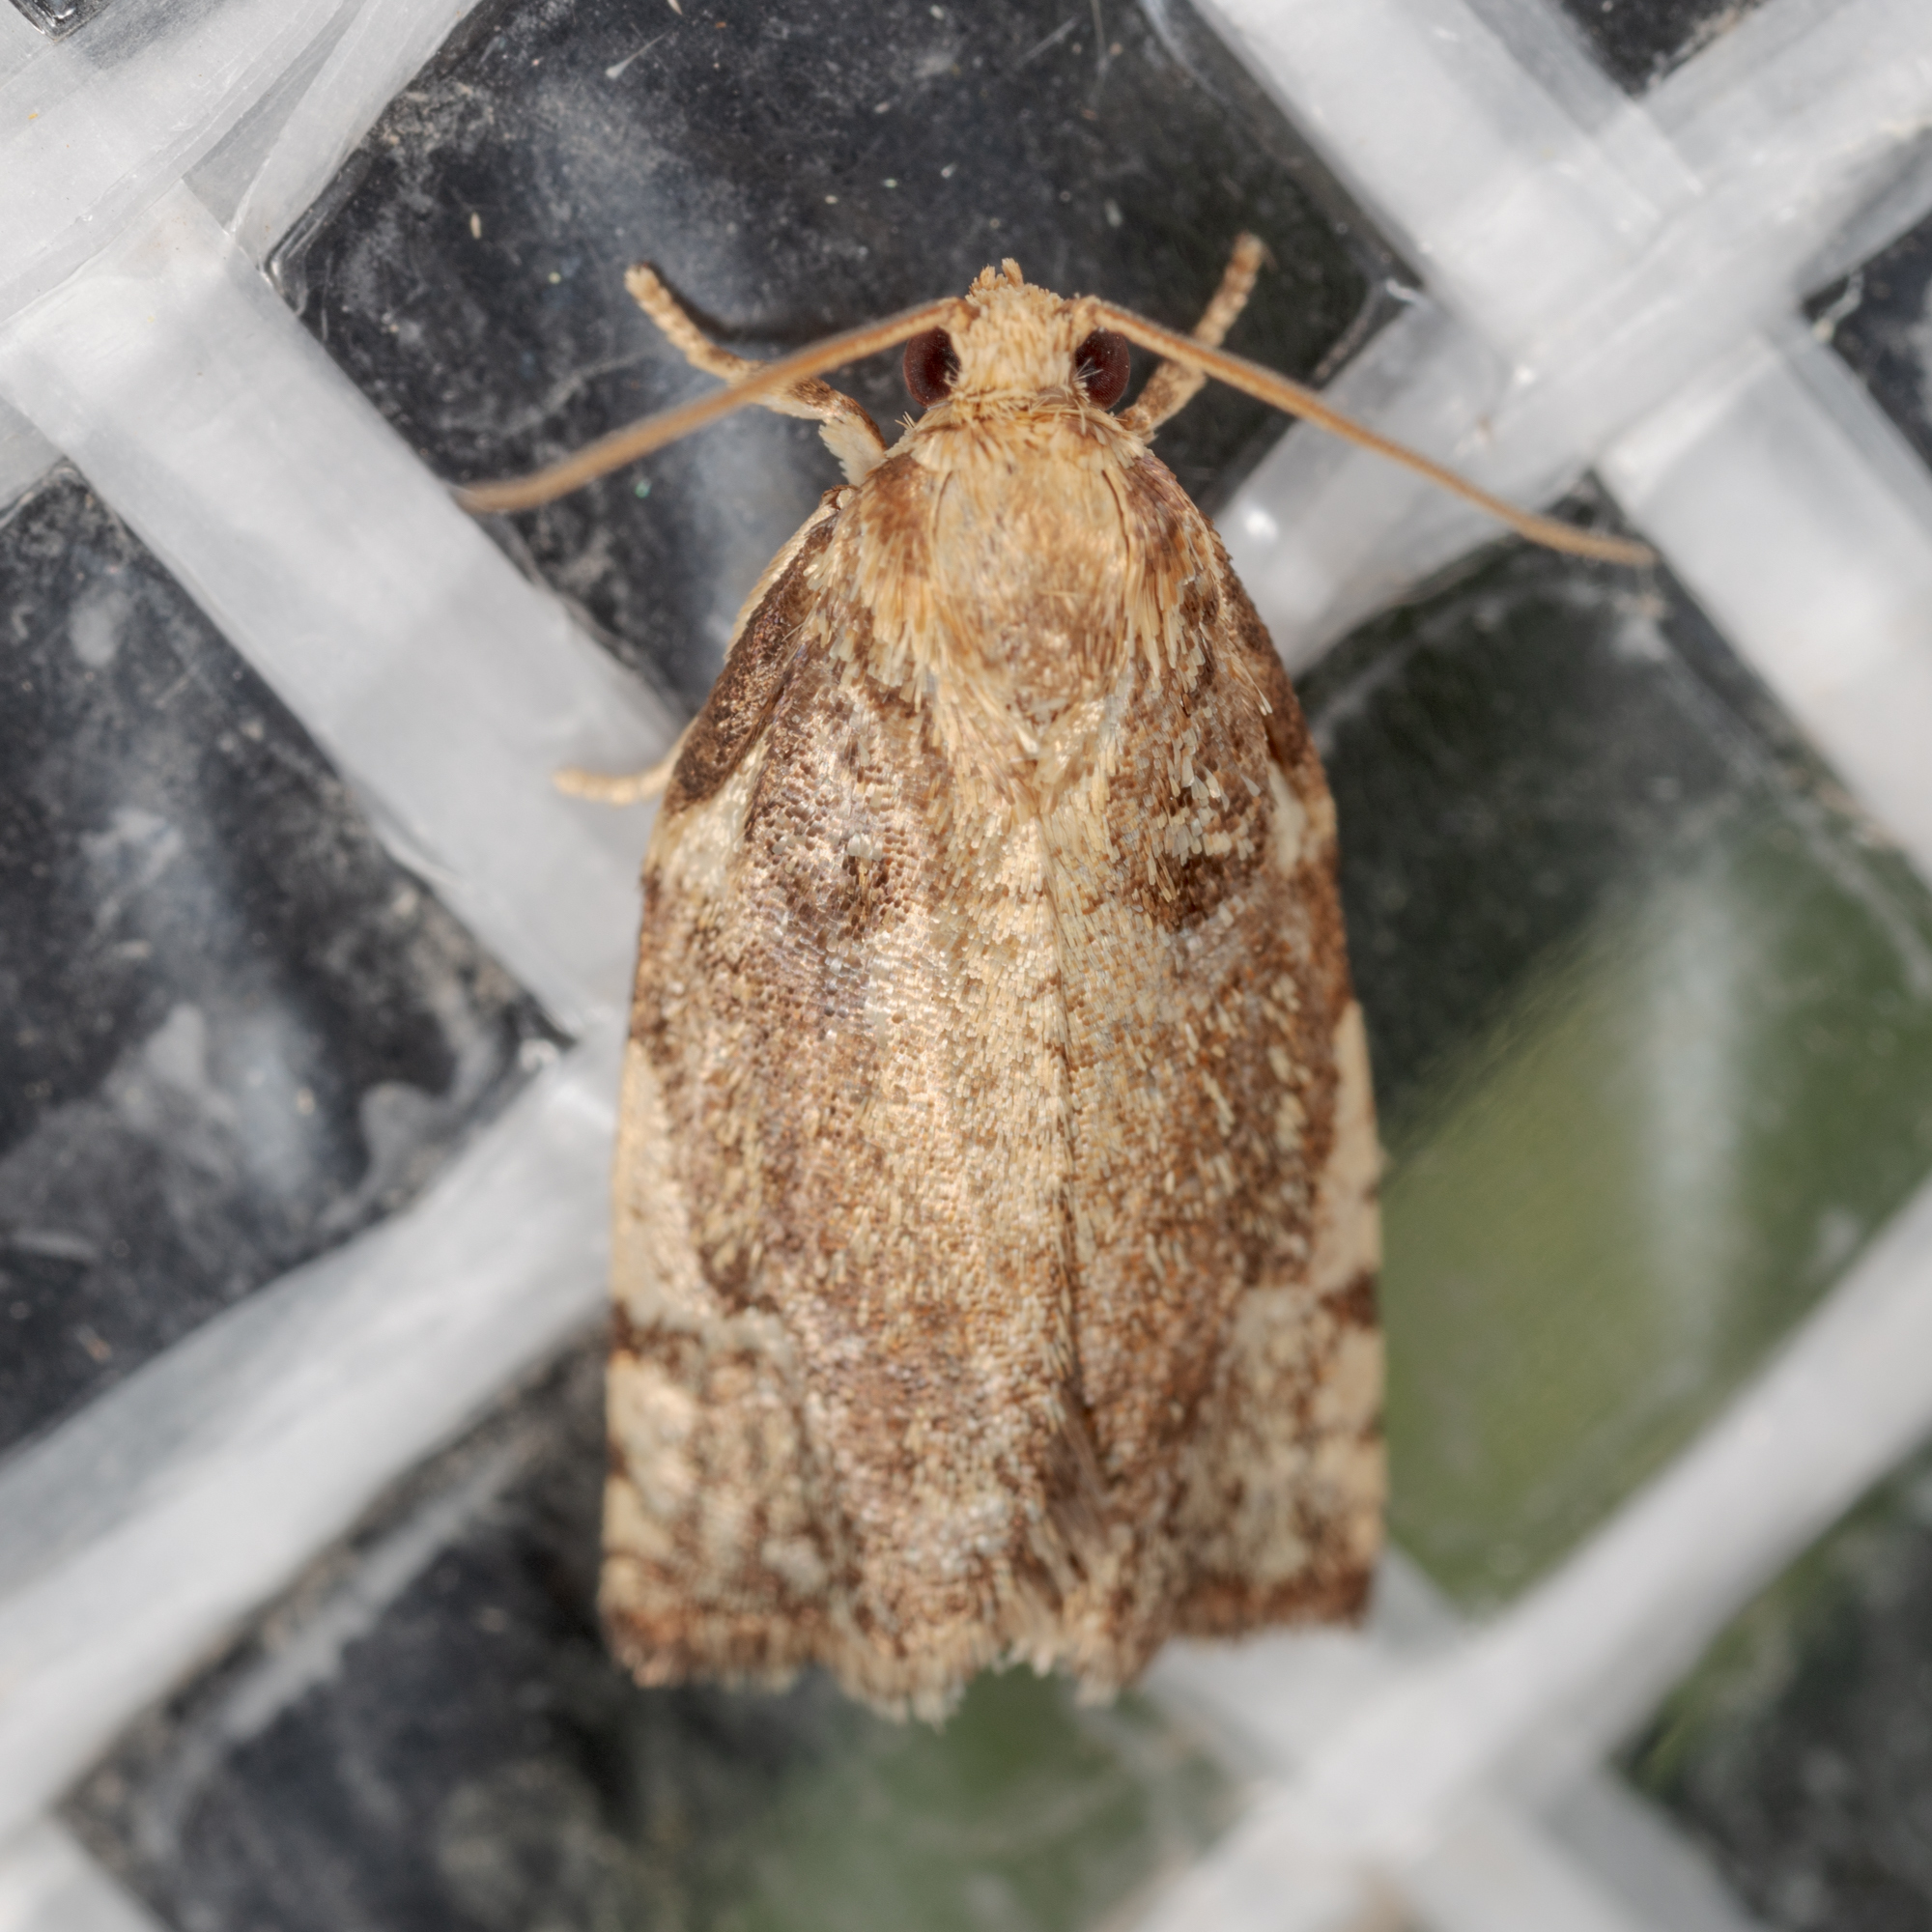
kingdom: Animalia
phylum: Arthropoda
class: Insecta
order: Lepidoptera
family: Tortricidae
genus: Archips
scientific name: Archips semiferanus
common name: Oak leafroller
